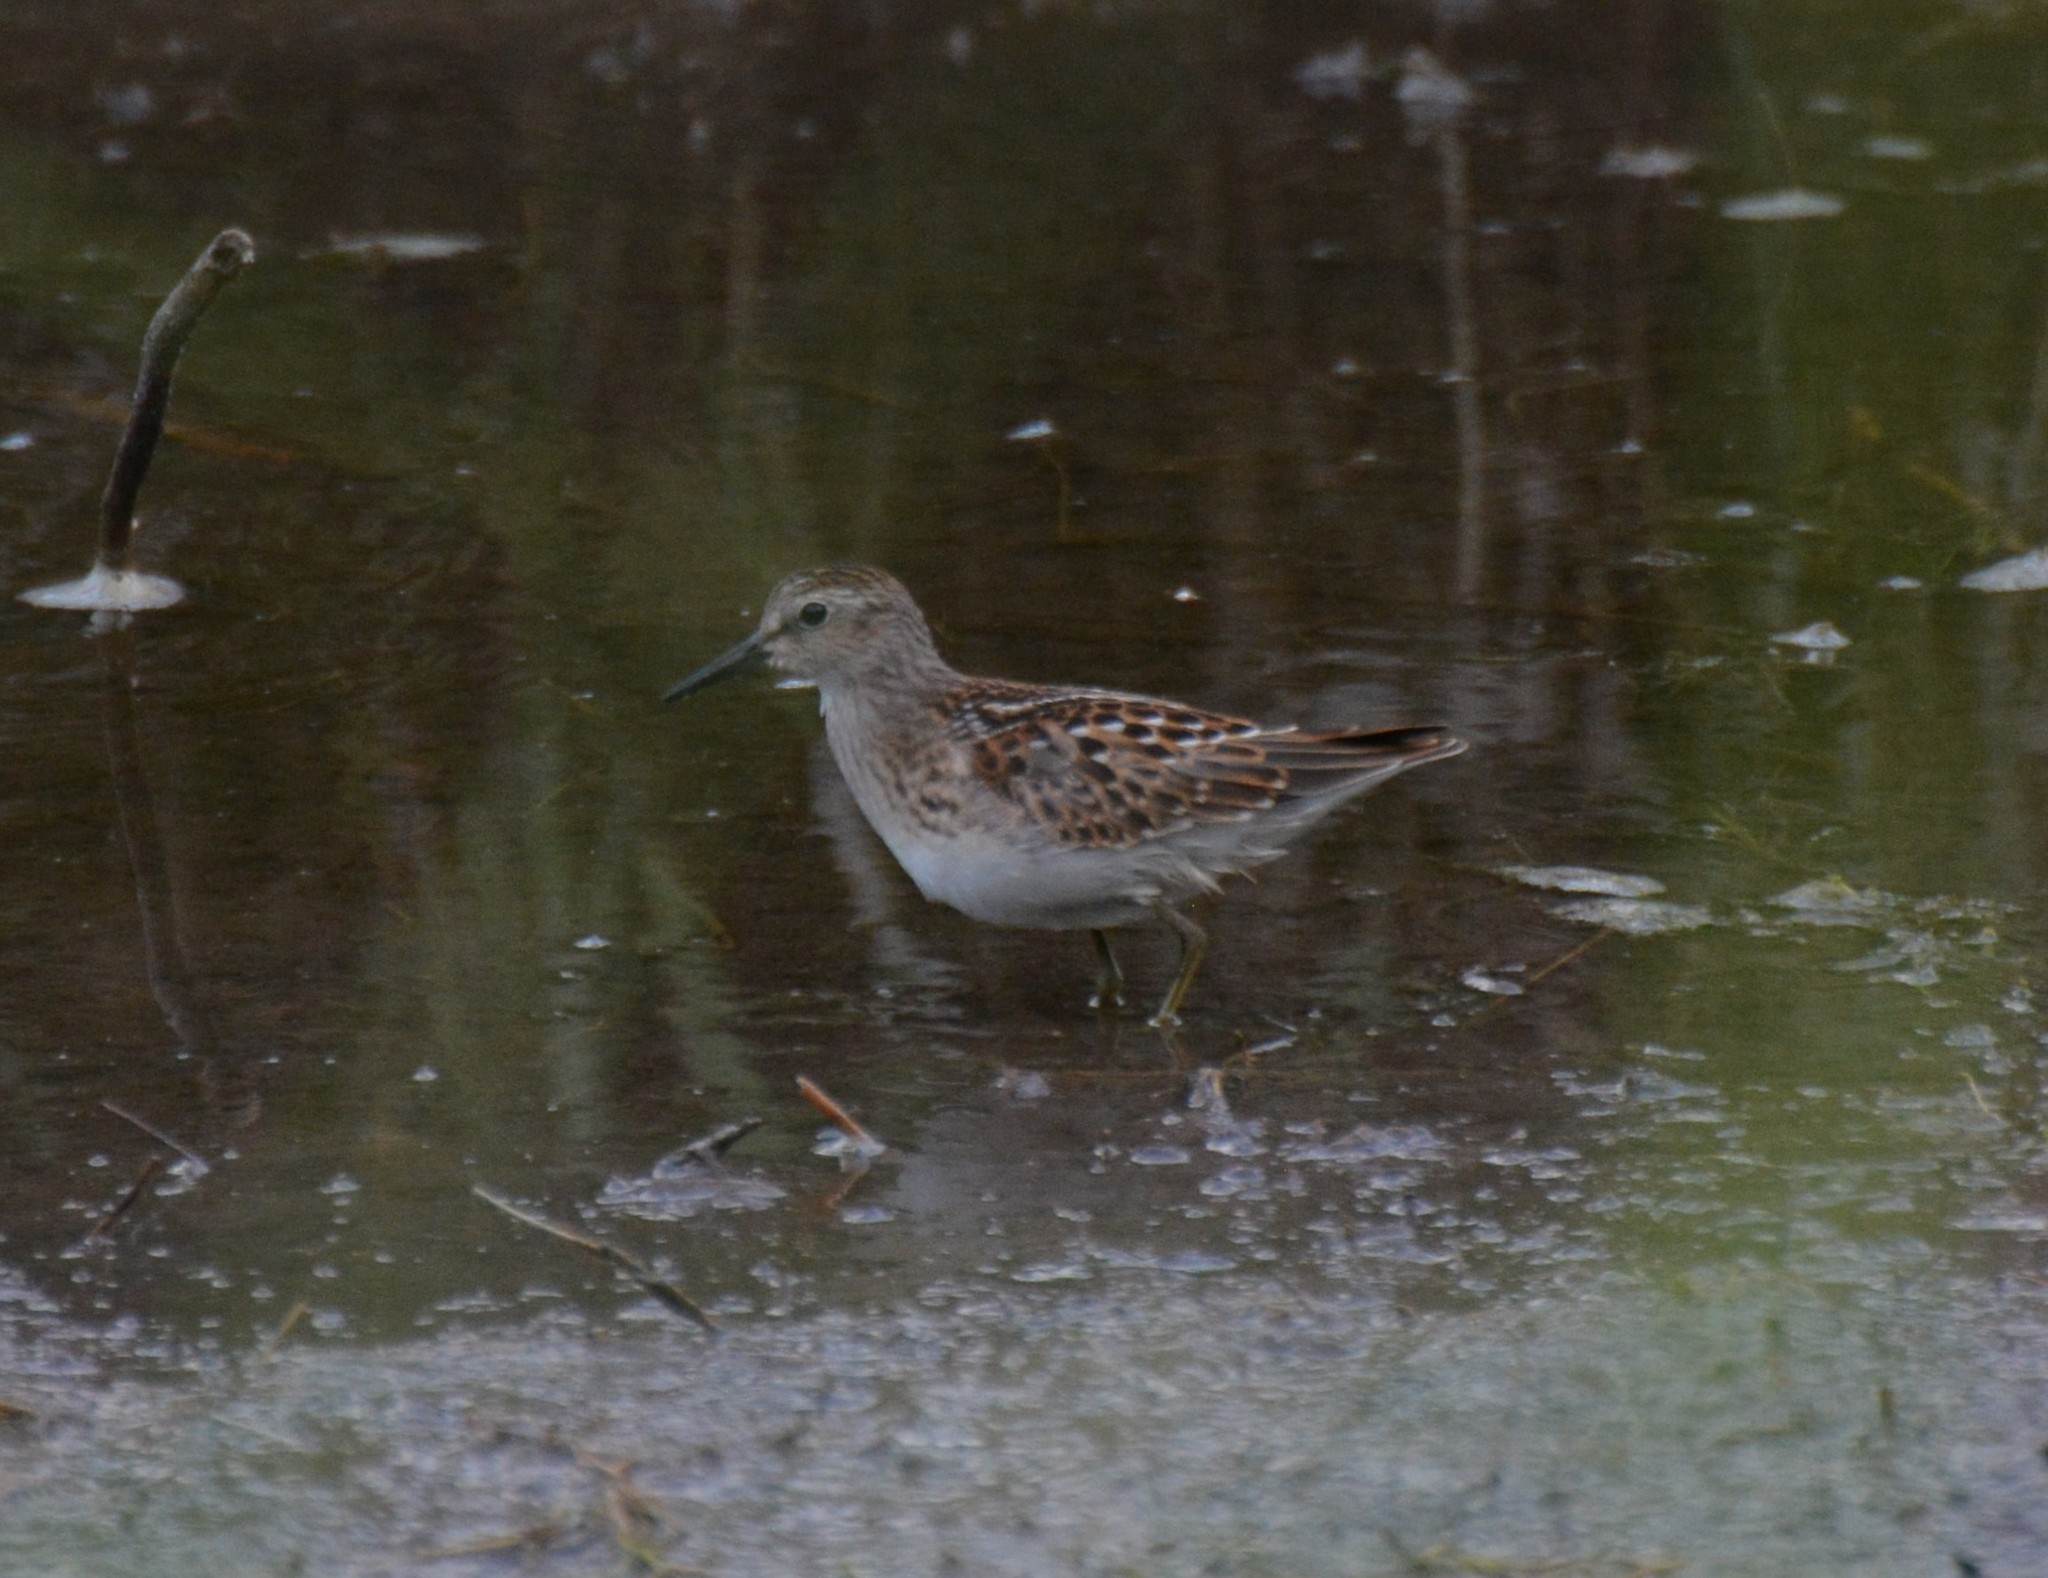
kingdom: Animalia
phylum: Chordata
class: Aves
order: Charadriiformes
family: Scolopacidae
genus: Calidris
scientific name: Calidris minutilla
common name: Least sandpiper
